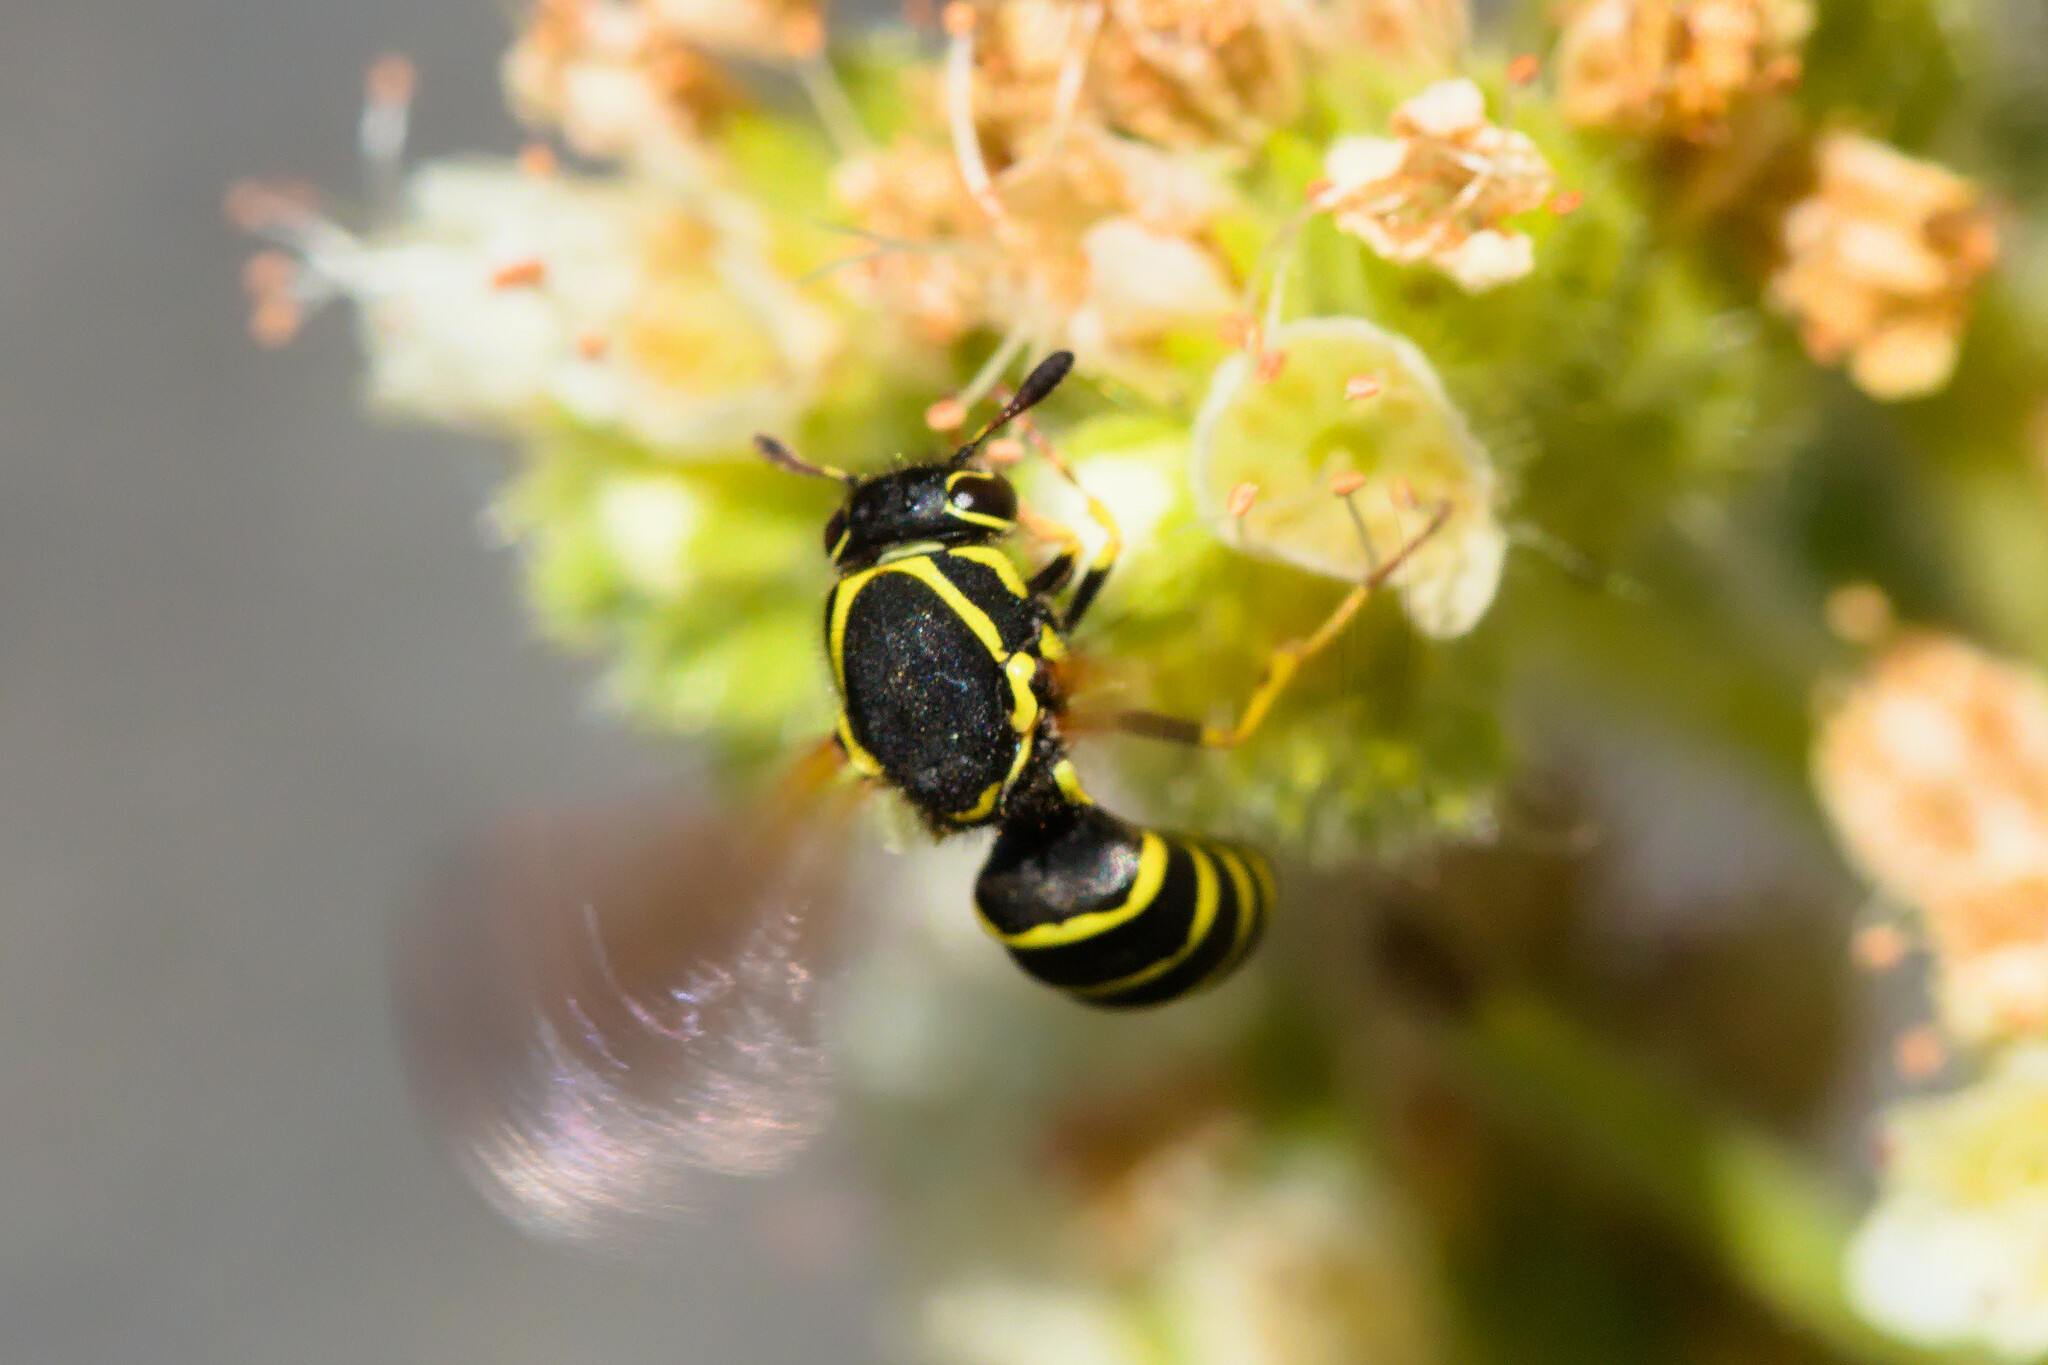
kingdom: Animalia
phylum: Arthropoda
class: Insecta
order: Hymenoptera
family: Masaridae
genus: Pseudomasaris
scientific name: Pseudomasaris zonalis
